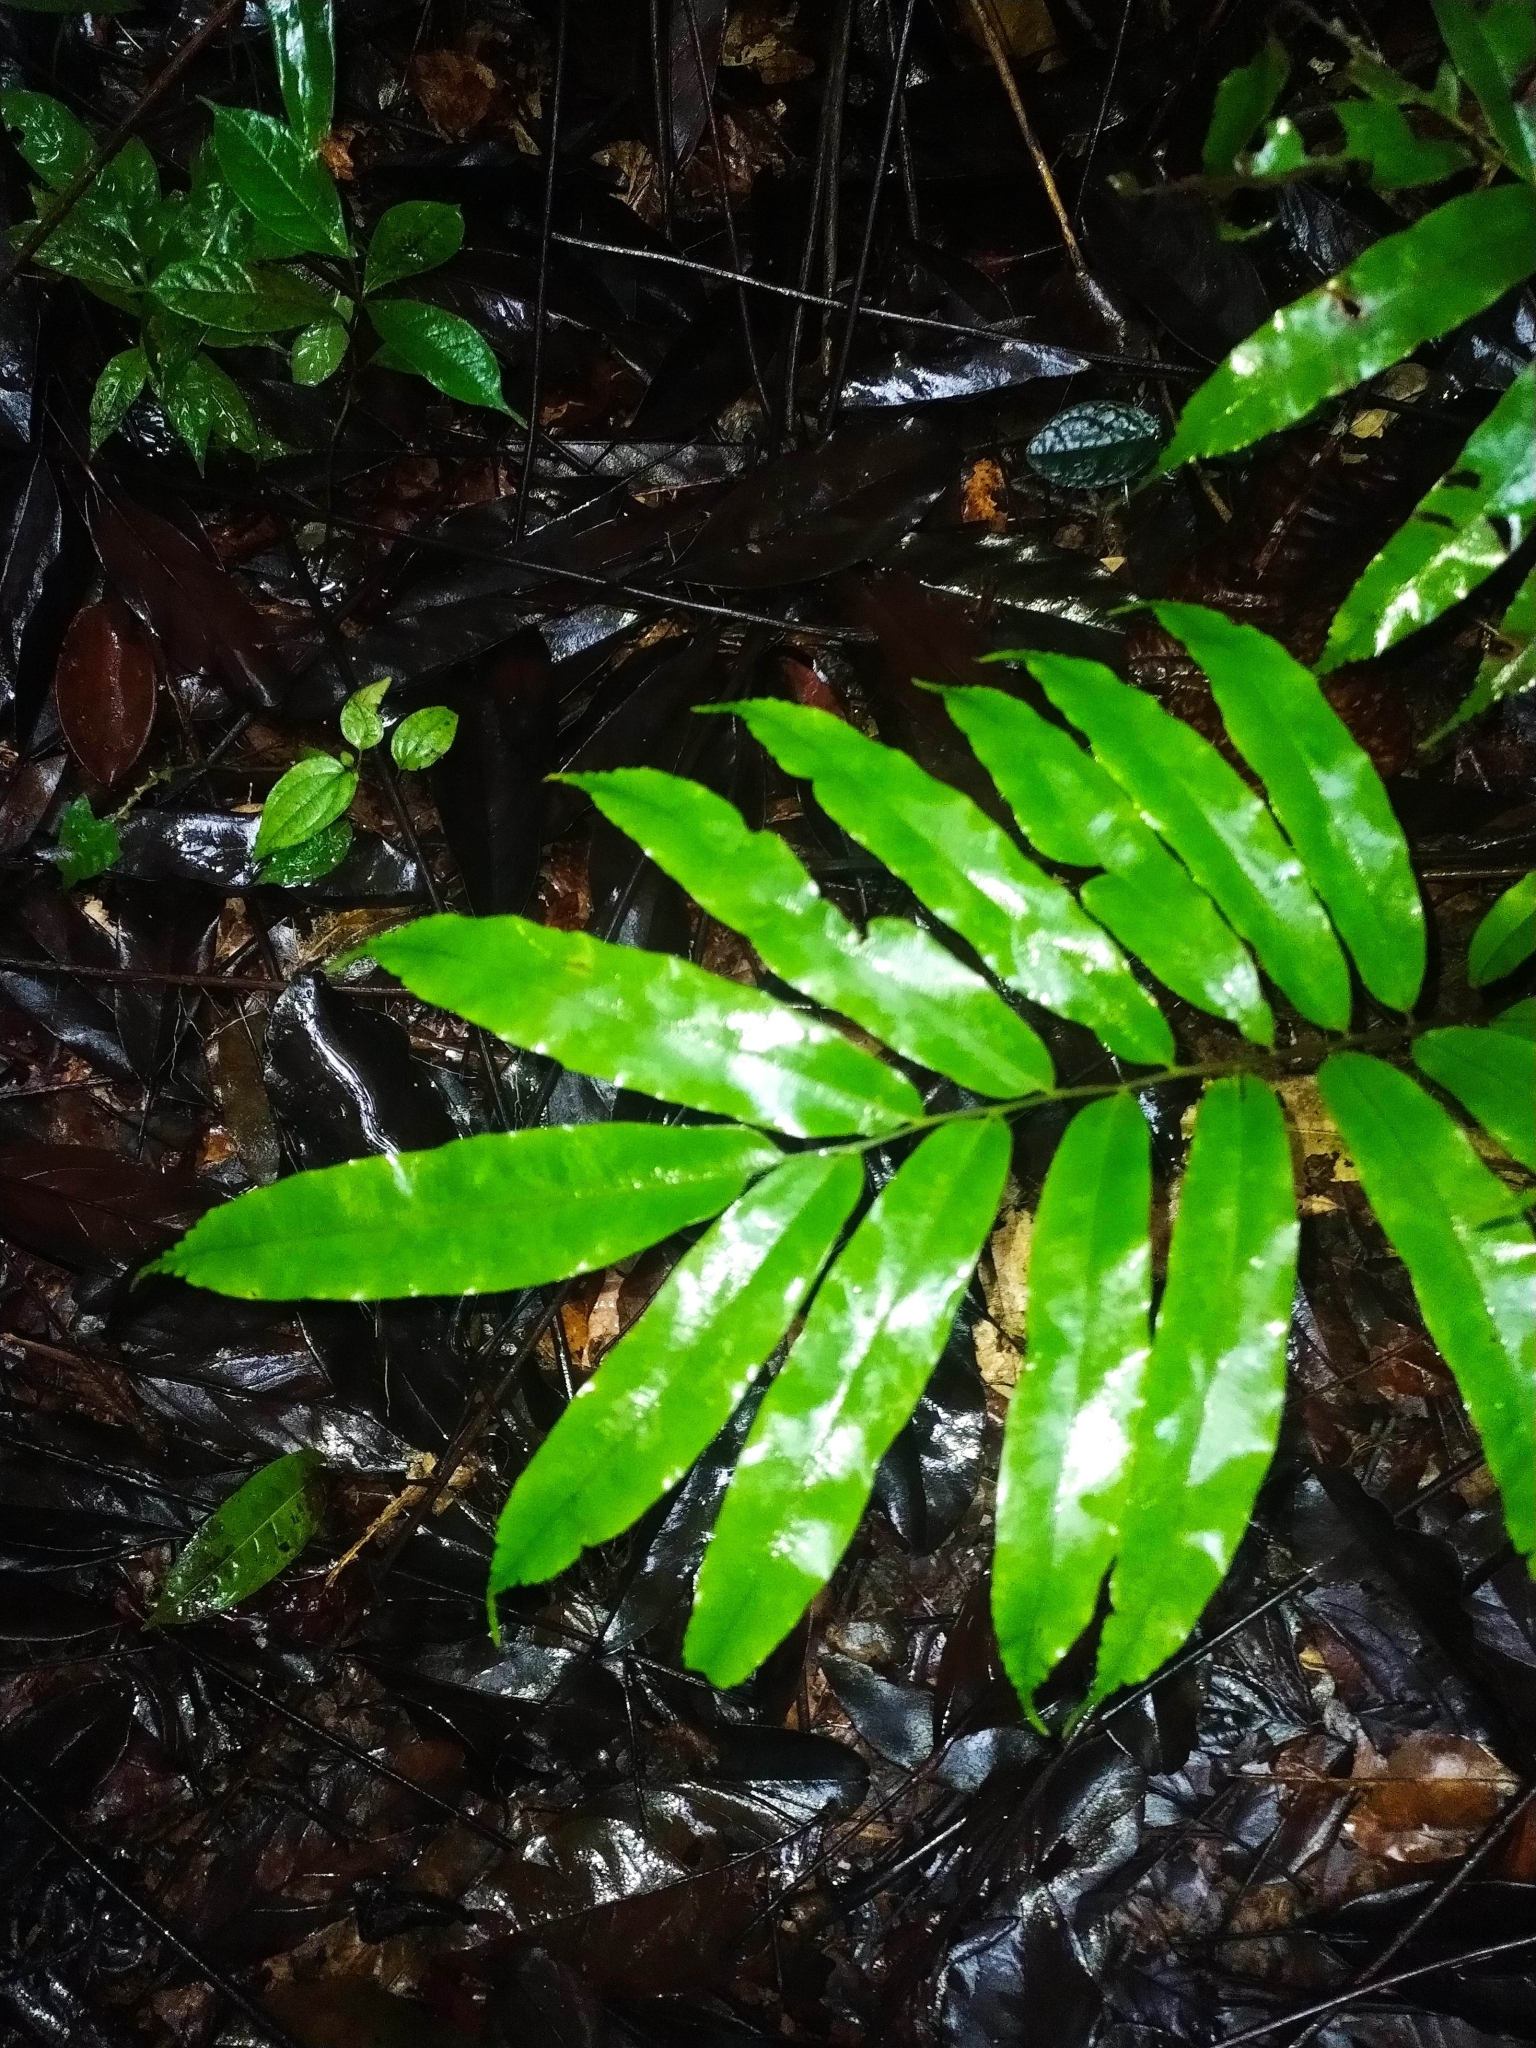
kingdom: Plantae
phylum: Tracheophyta
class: Polypodiopsida
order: Cyatheales
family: Metaxyaceae
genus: Metaxya
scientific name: Metaxya scalaris
